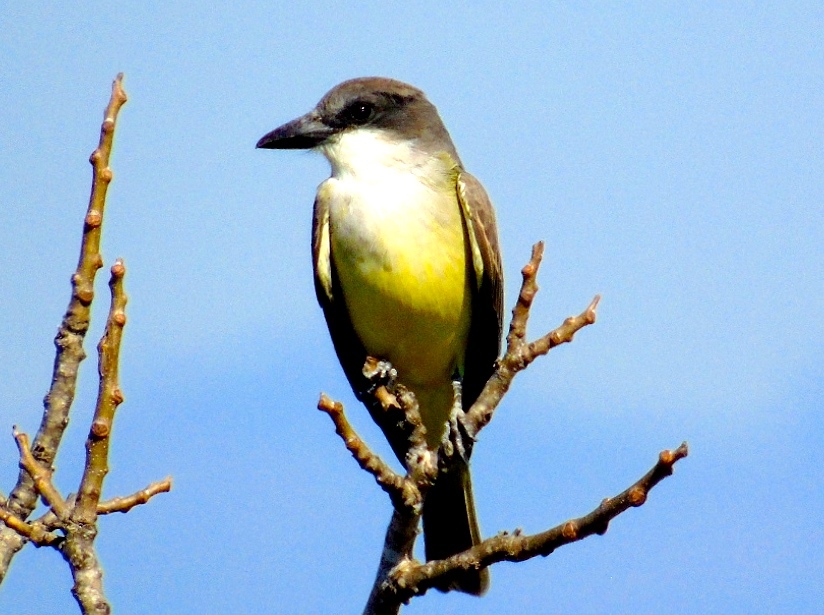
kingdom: Animalia
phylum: Chordata
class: Aves
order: Passeriformes
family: Tyrannidae
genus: Tyrannus
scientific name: Tyrannus crassirostris
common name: Thick-billed kingbird
